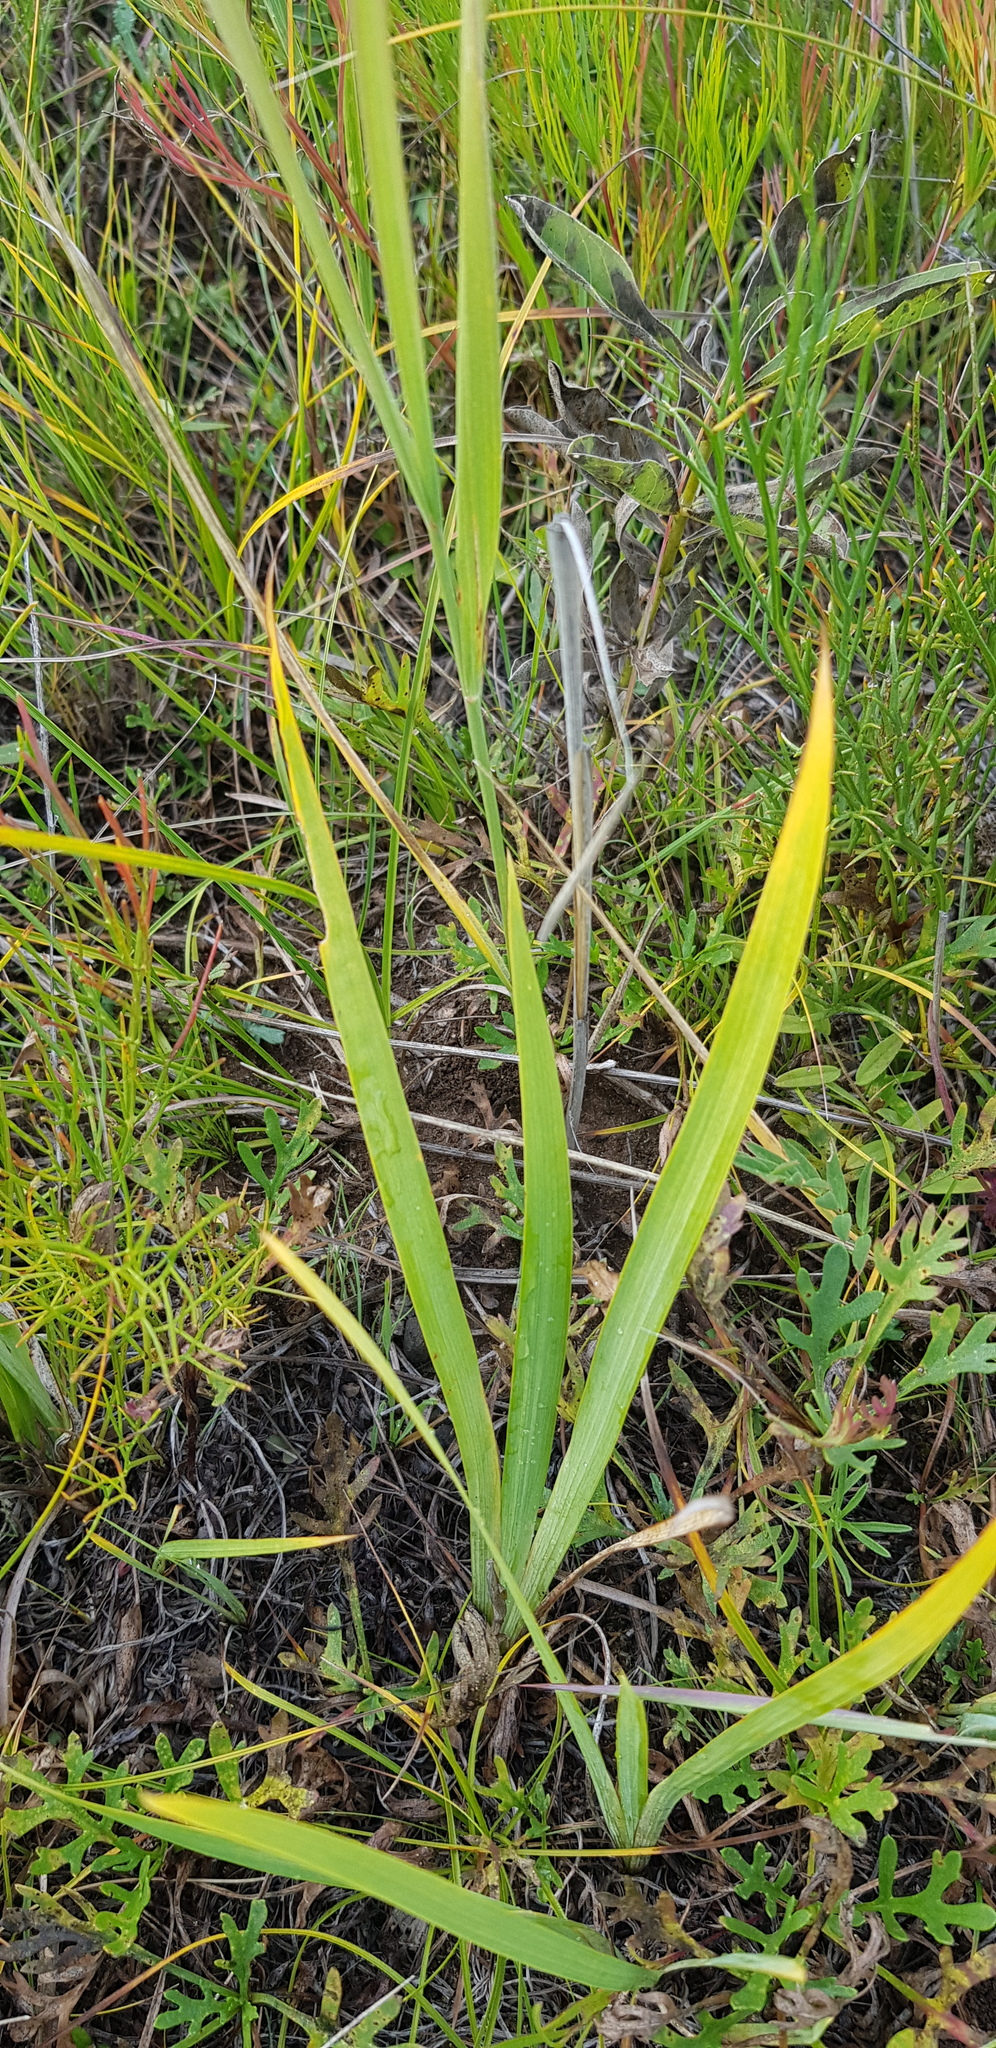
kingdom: Plantae
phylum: Tracheophyta
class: Liliopsida
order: Asparagales
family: Iridaceae
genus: Iris
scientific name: Iris humilis
